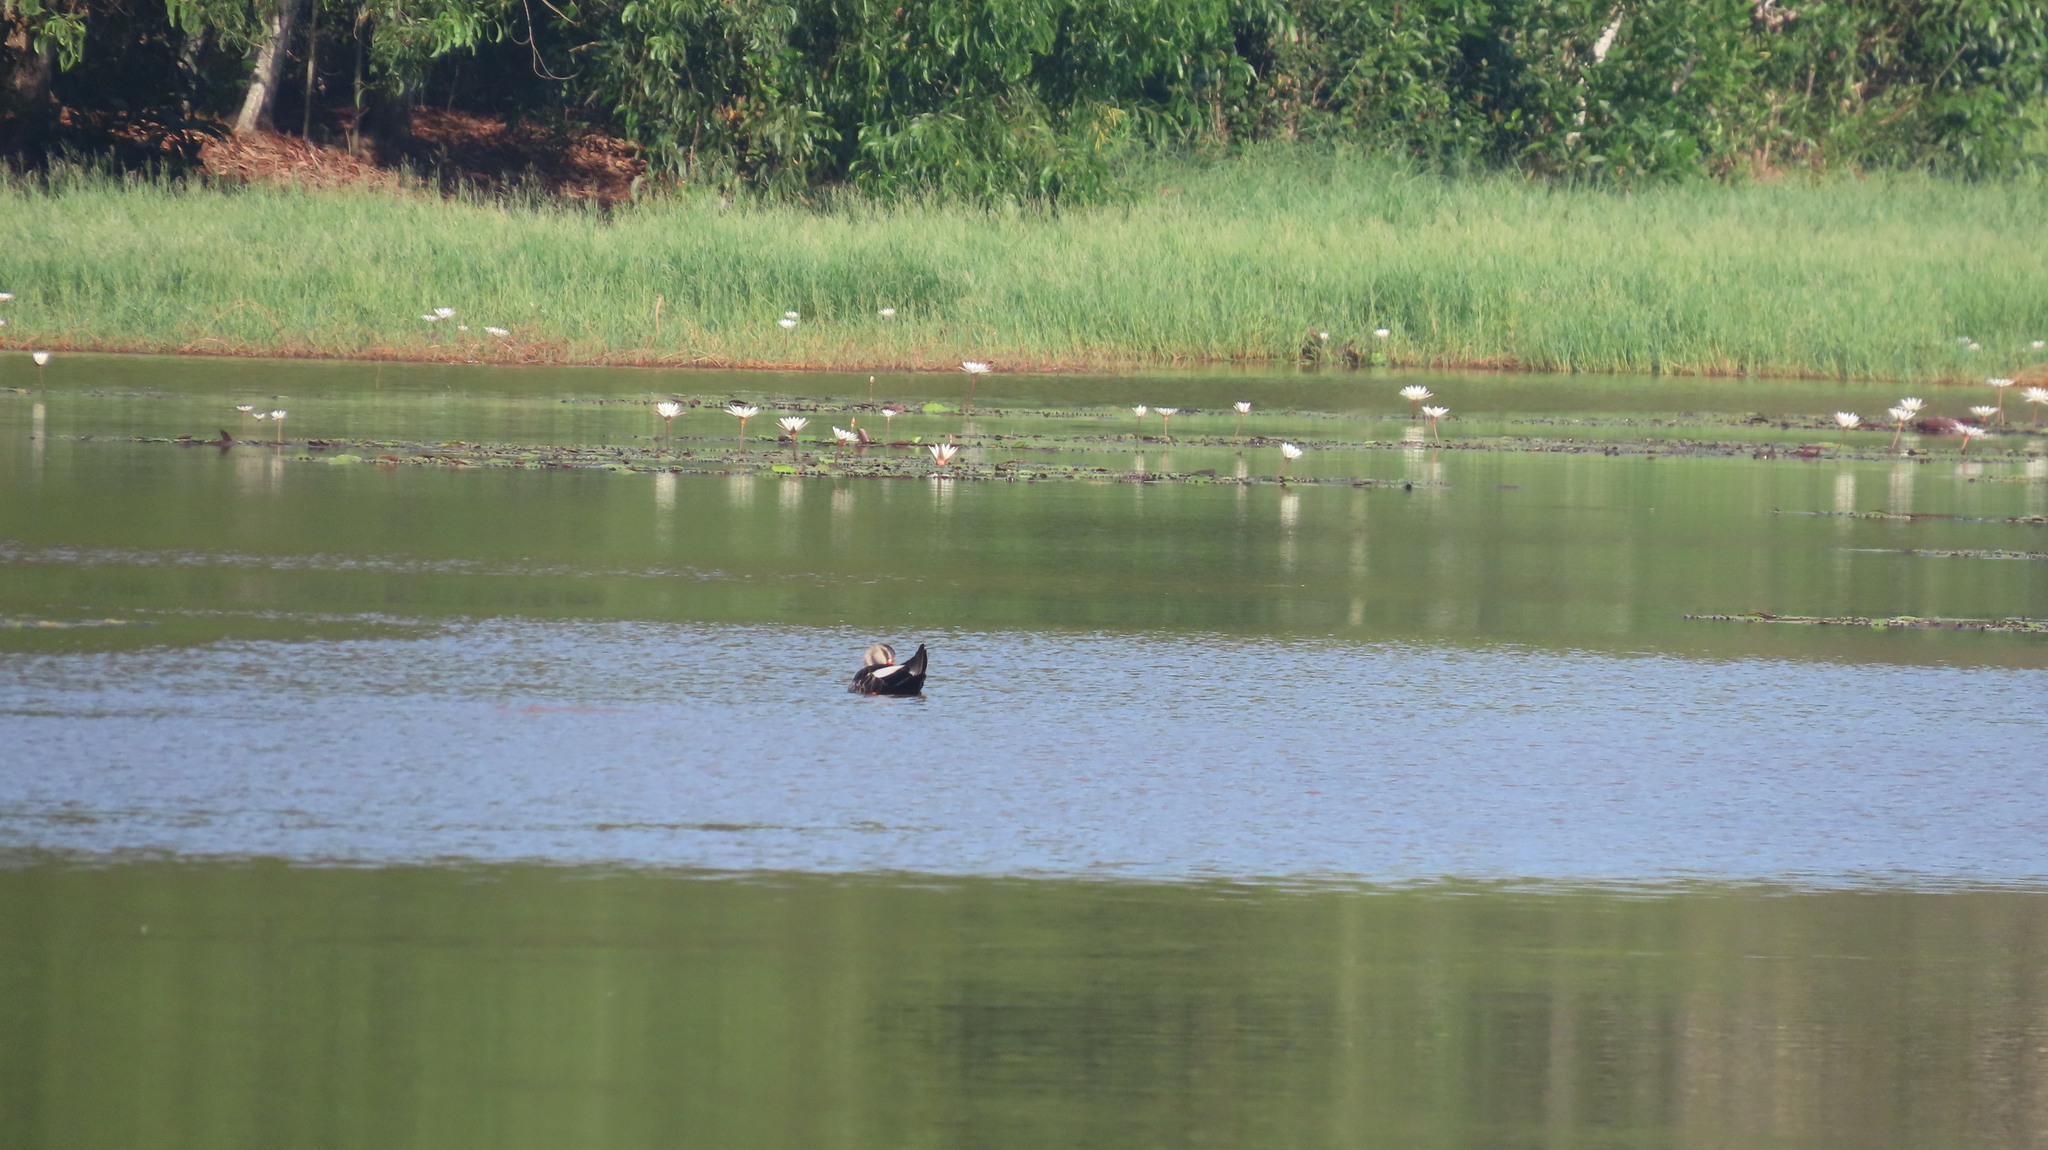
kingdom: Animalia
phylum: Chordata
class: Aves
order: Anseriformes
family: Anatidae
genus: Anas
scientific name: Anas poecilorhyncha
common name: Indian spot-billed duck
